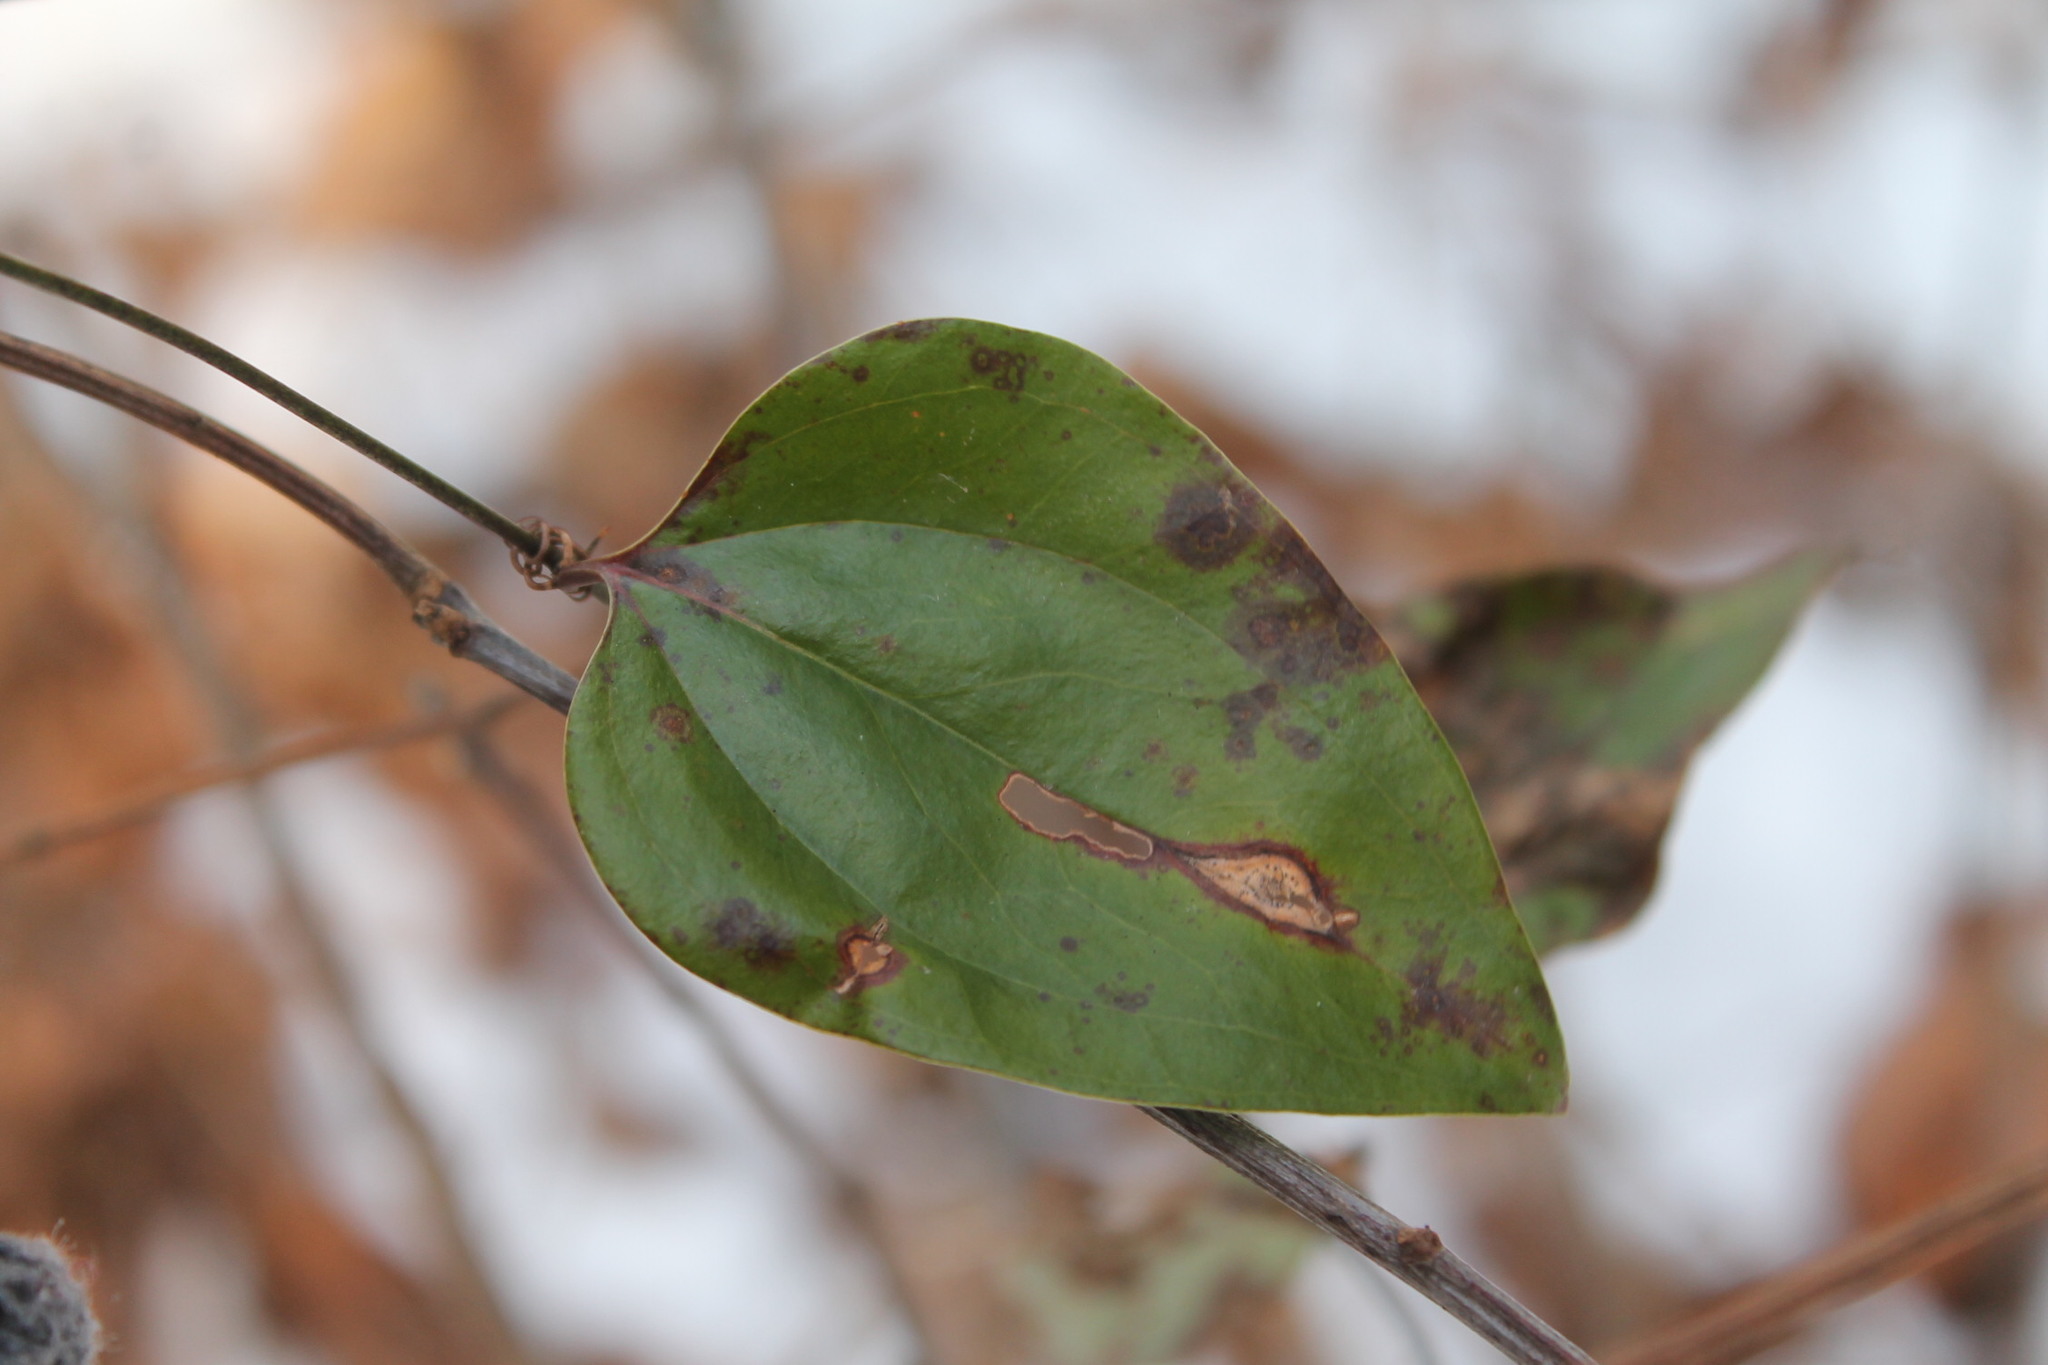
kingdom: Plantae
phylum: Tracheophyta
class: Liliopsida
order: Liliales
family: Smilacaceae
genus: Smilax
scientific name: Smilax glauca
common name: Cat greenbrier
